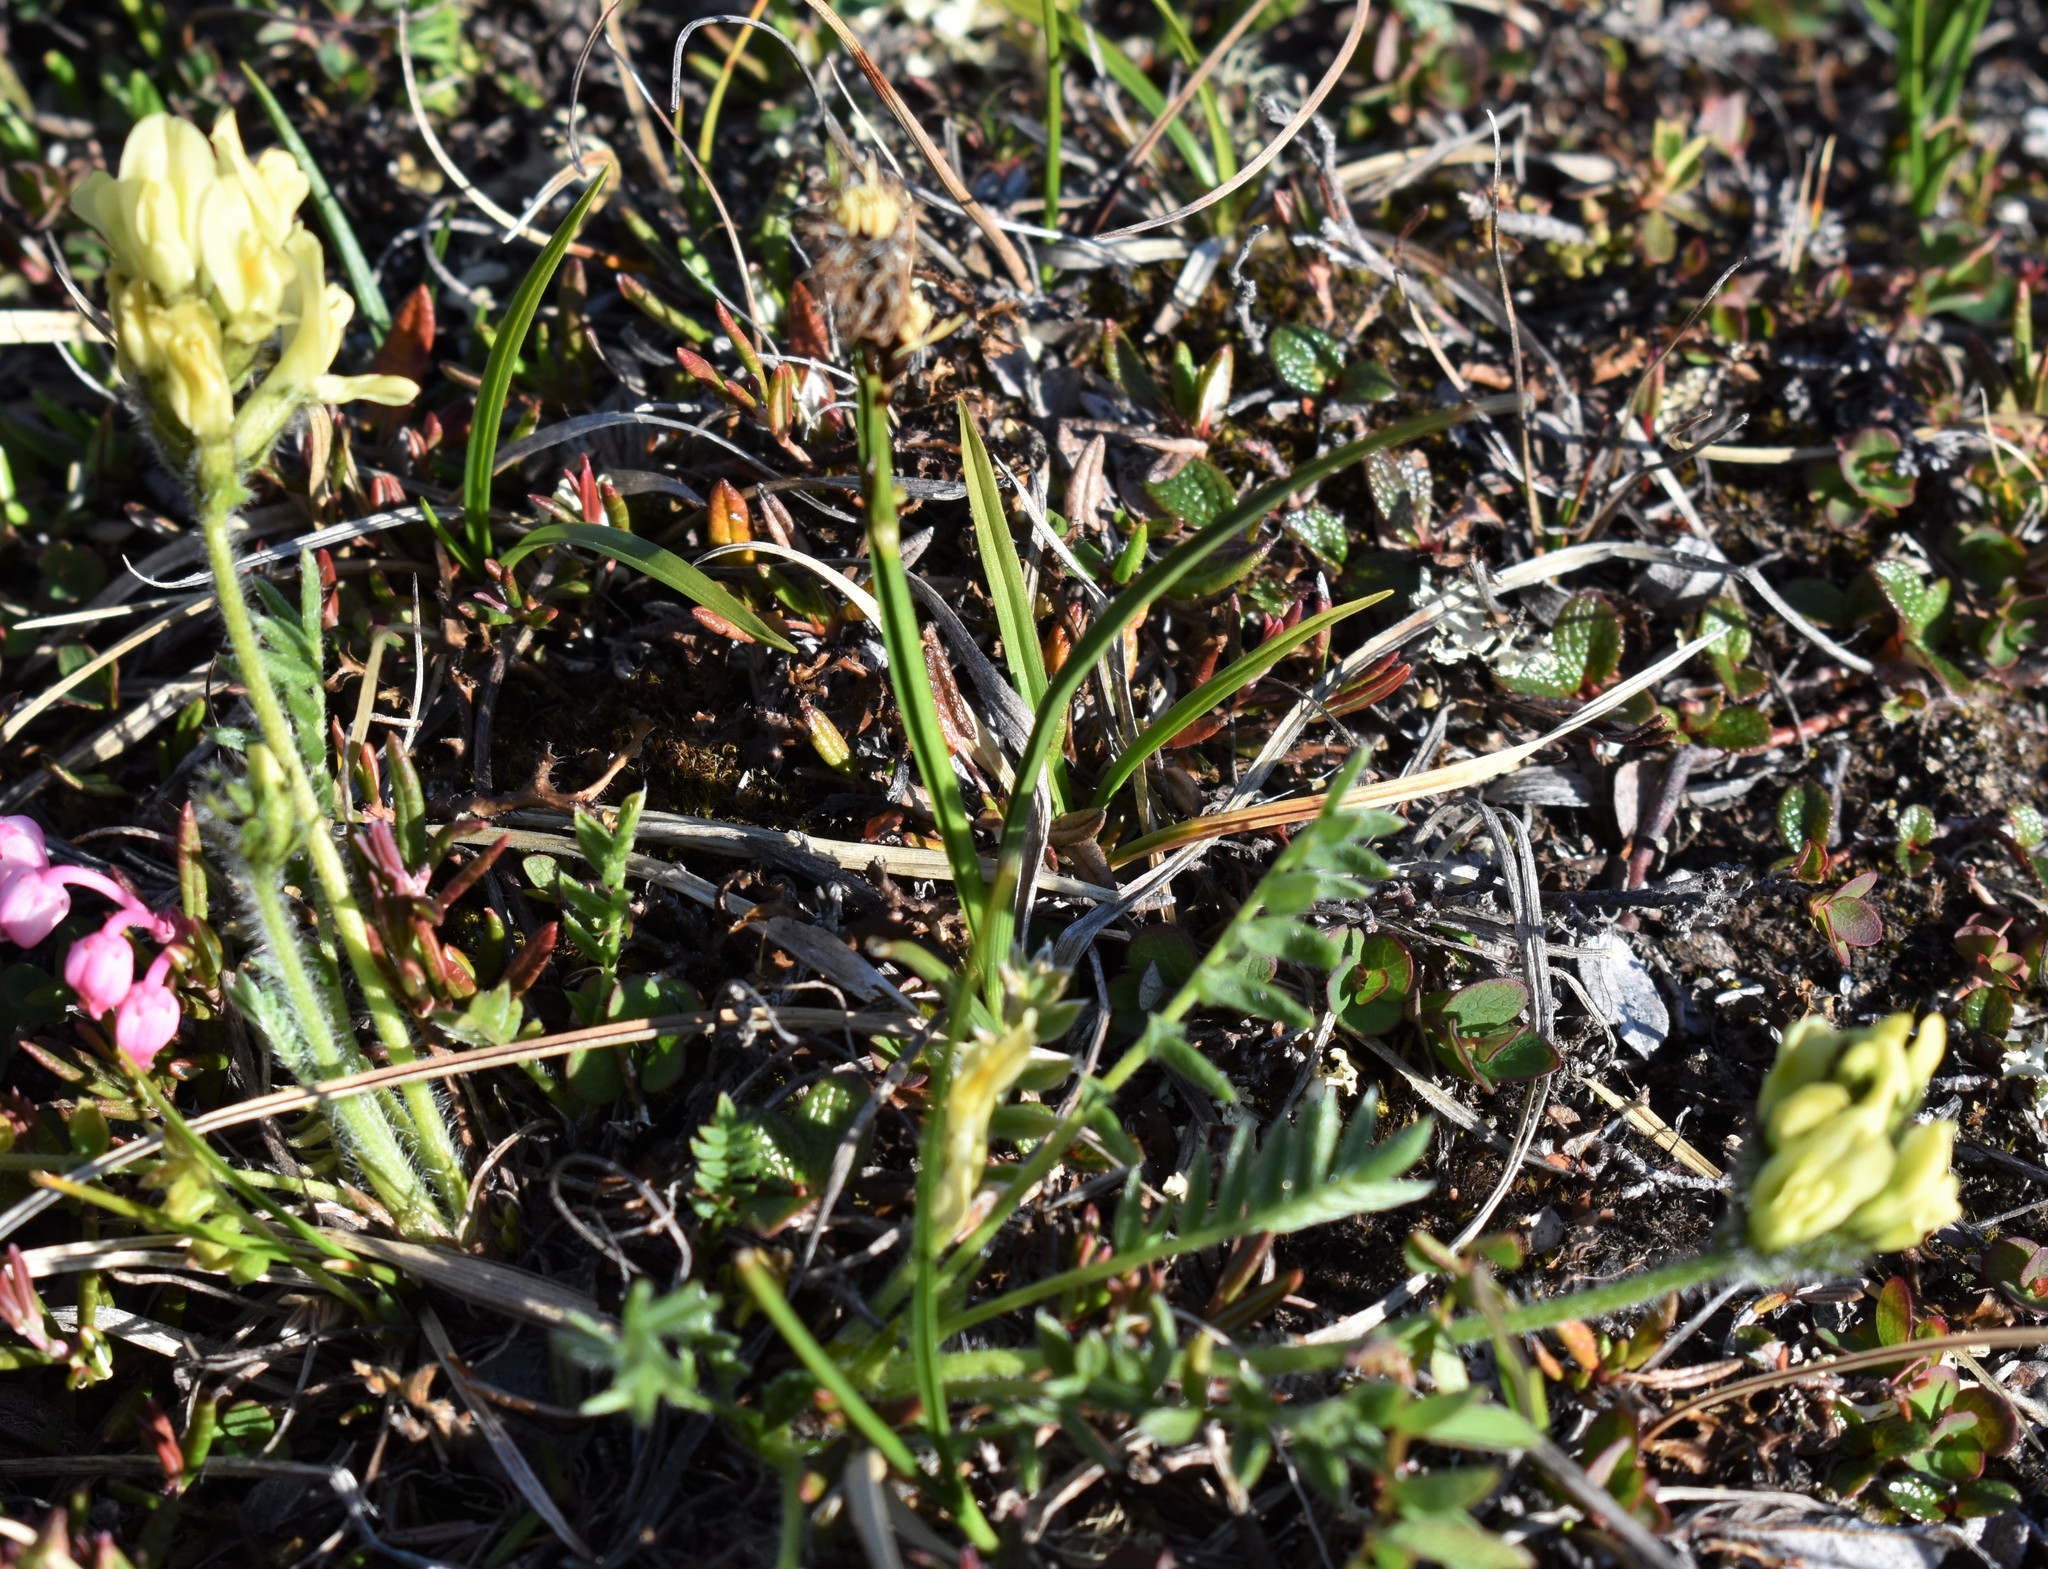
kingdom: Plantae
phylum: Tracheophyta
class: Magnoliopsida
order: Fabales
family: Fabaceae
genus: Oxytropis
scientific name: Oxytropis maydelliana
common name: Maydell's locoweed
